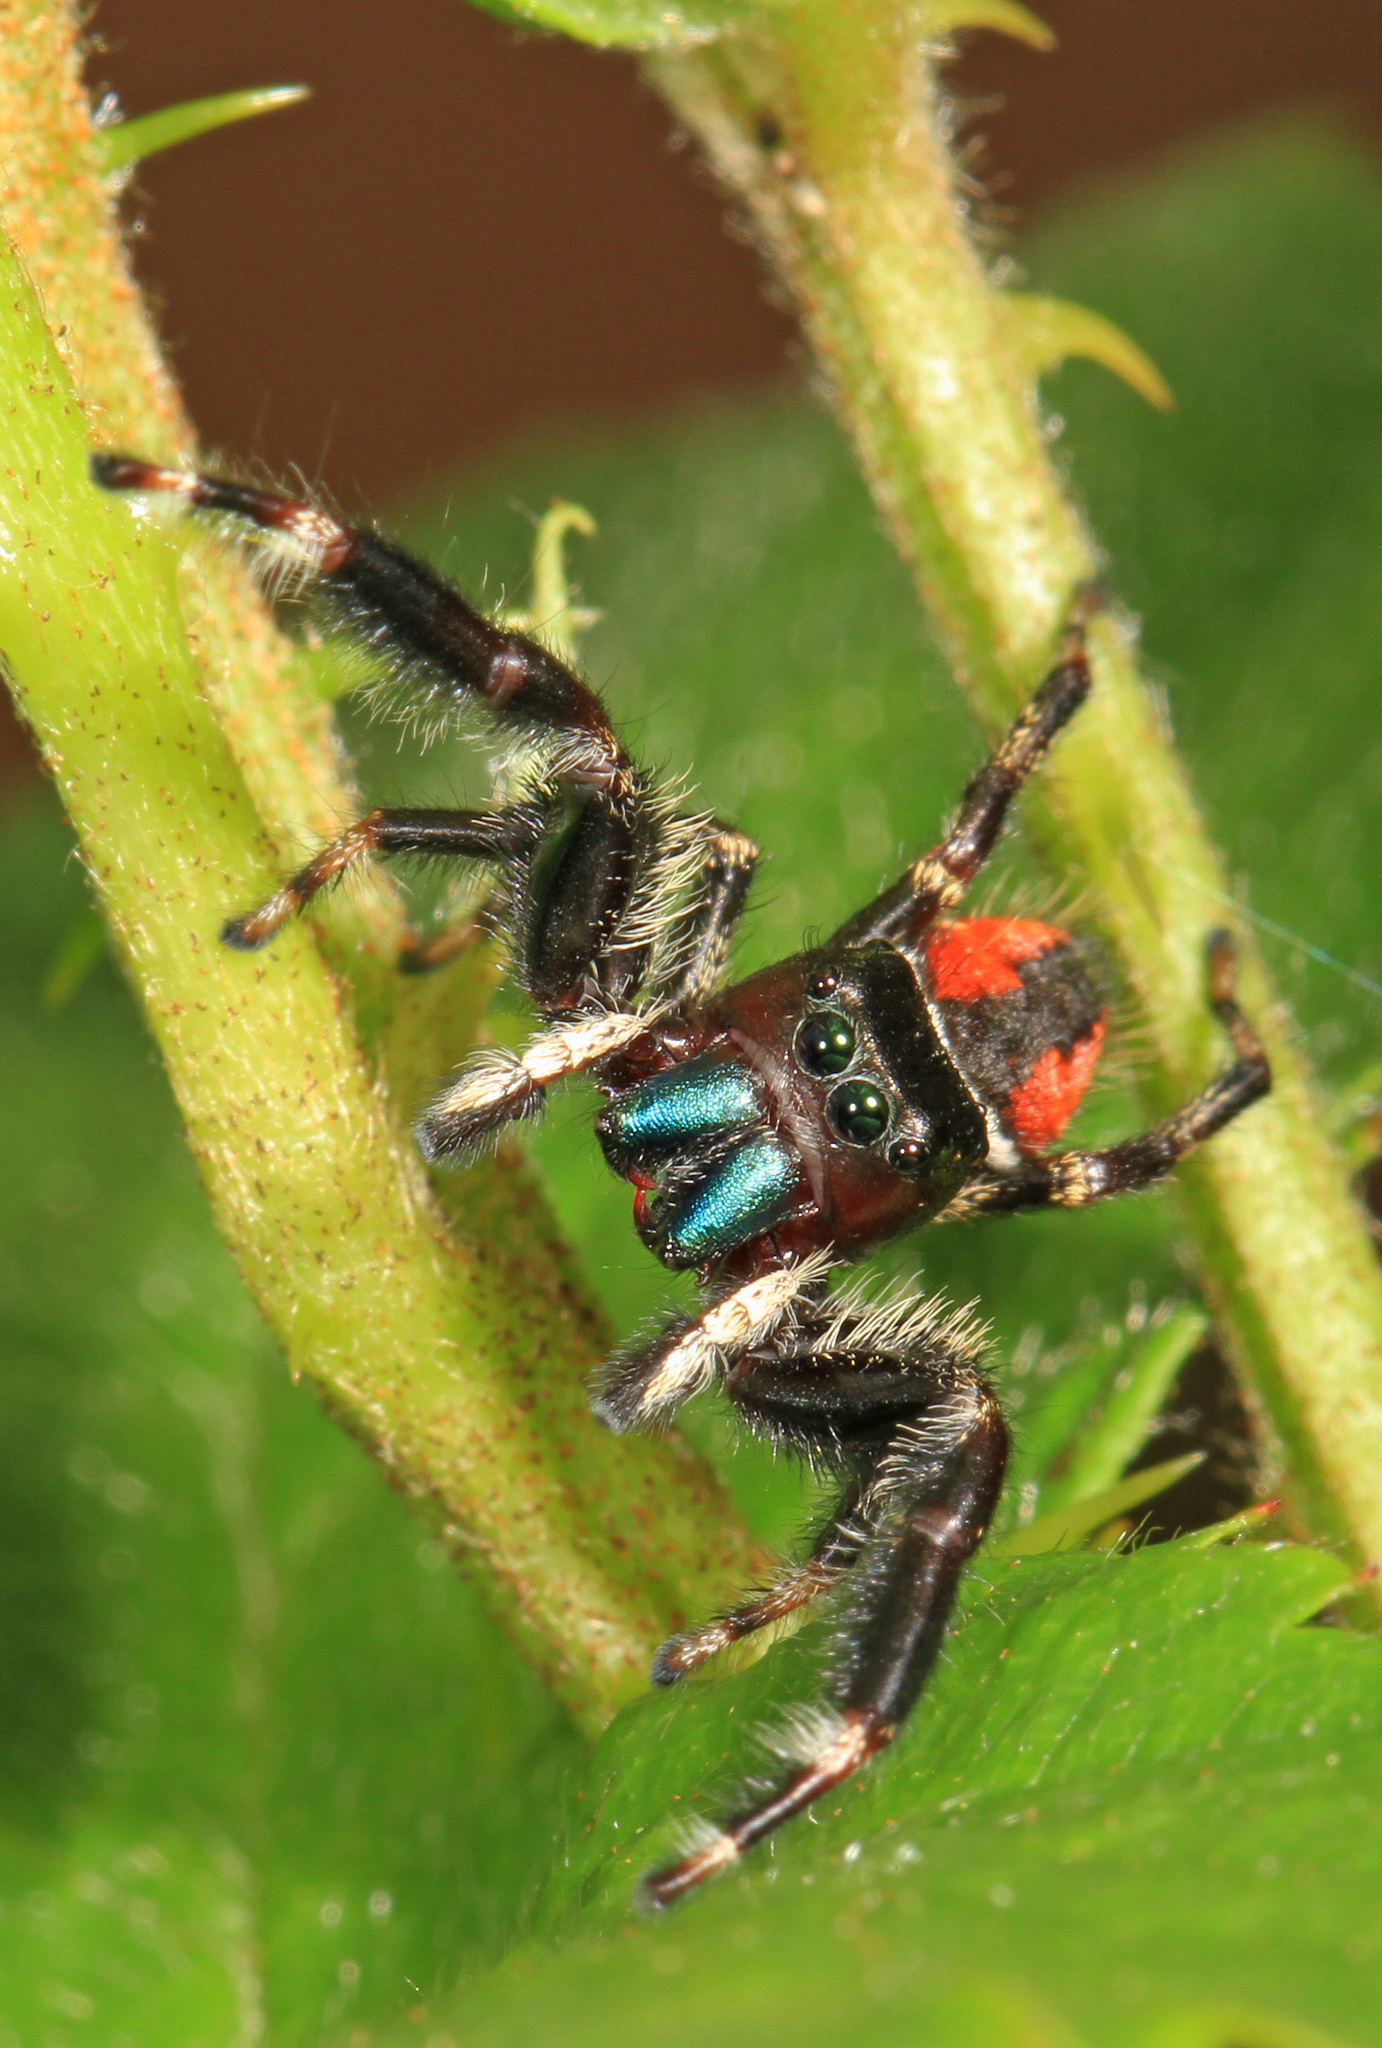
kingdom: Animalia
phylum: Arthropoda
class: Arachnida
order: Araneae
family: Salticidae
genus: Phidippus
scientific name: Phidippus clarus
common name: Brilliant jumping spider
